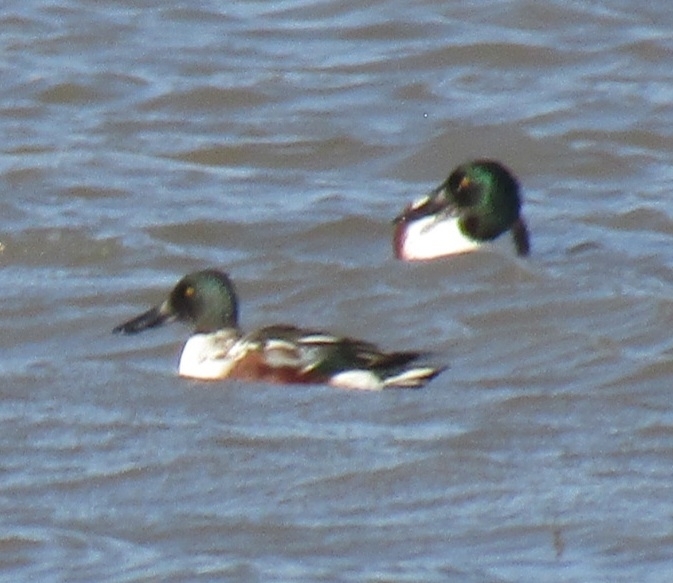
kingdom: Animalia
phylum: Chordata
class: Aves
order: Anseriformes
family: Anatidae
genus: Spatula
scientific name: Spatula clypeata
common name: Northern shoveler
